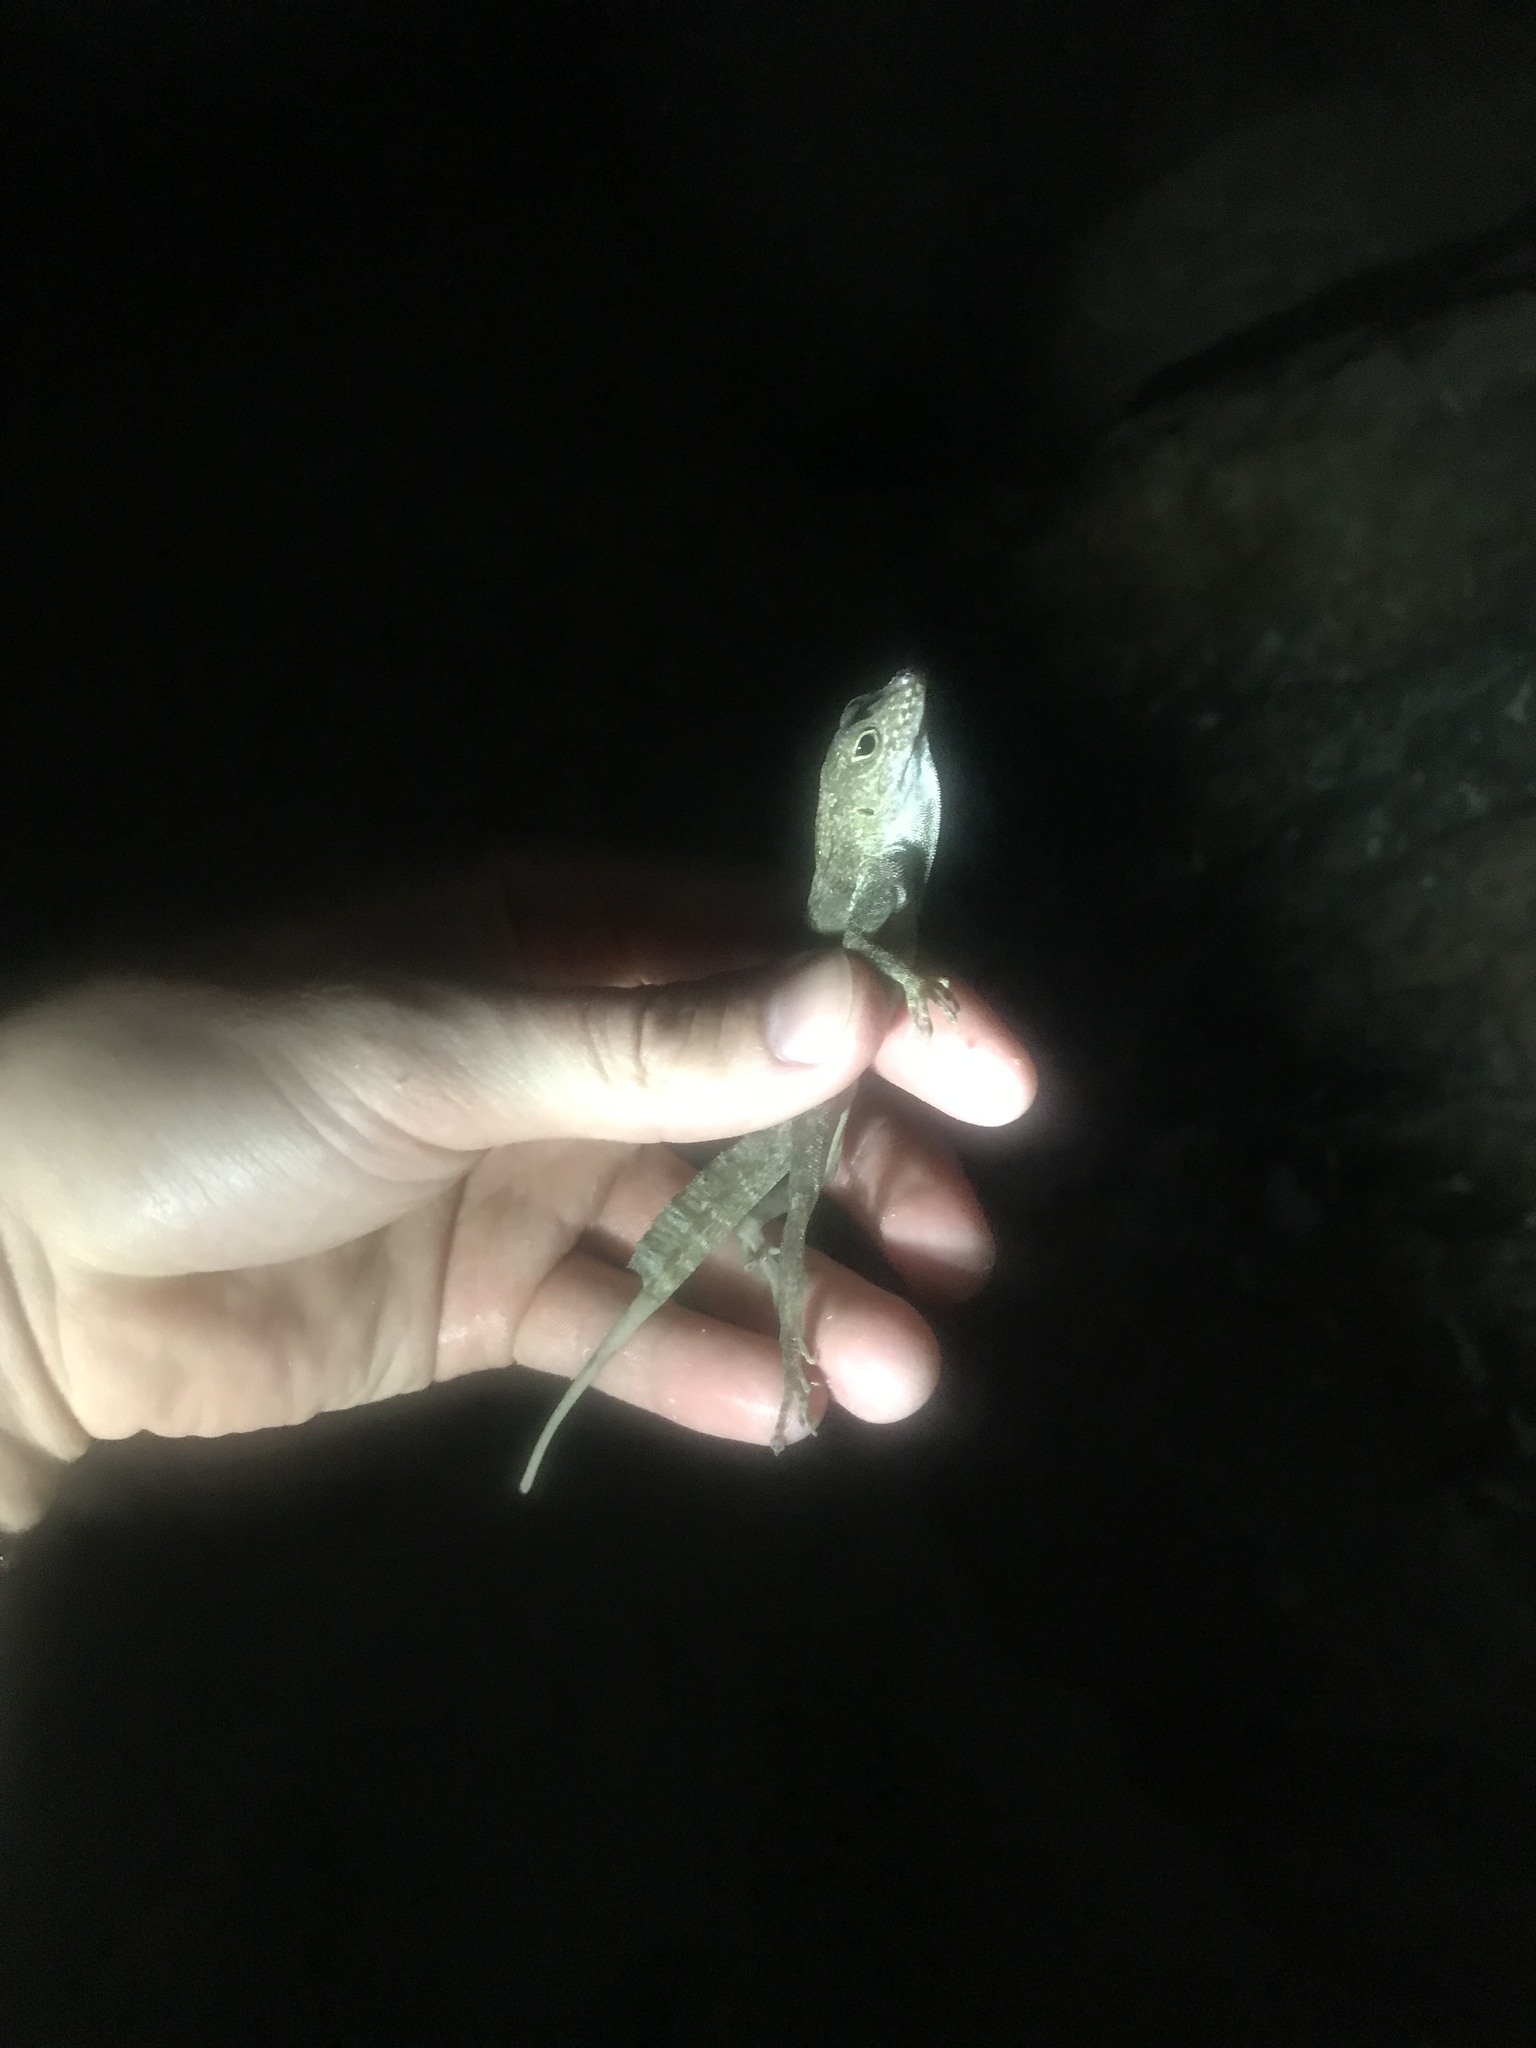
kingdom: Animalia
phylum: Chordata
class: Squamata
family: Dactyloidae
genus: Anolis
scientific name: Anolis cristatellus
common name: Crested anole
